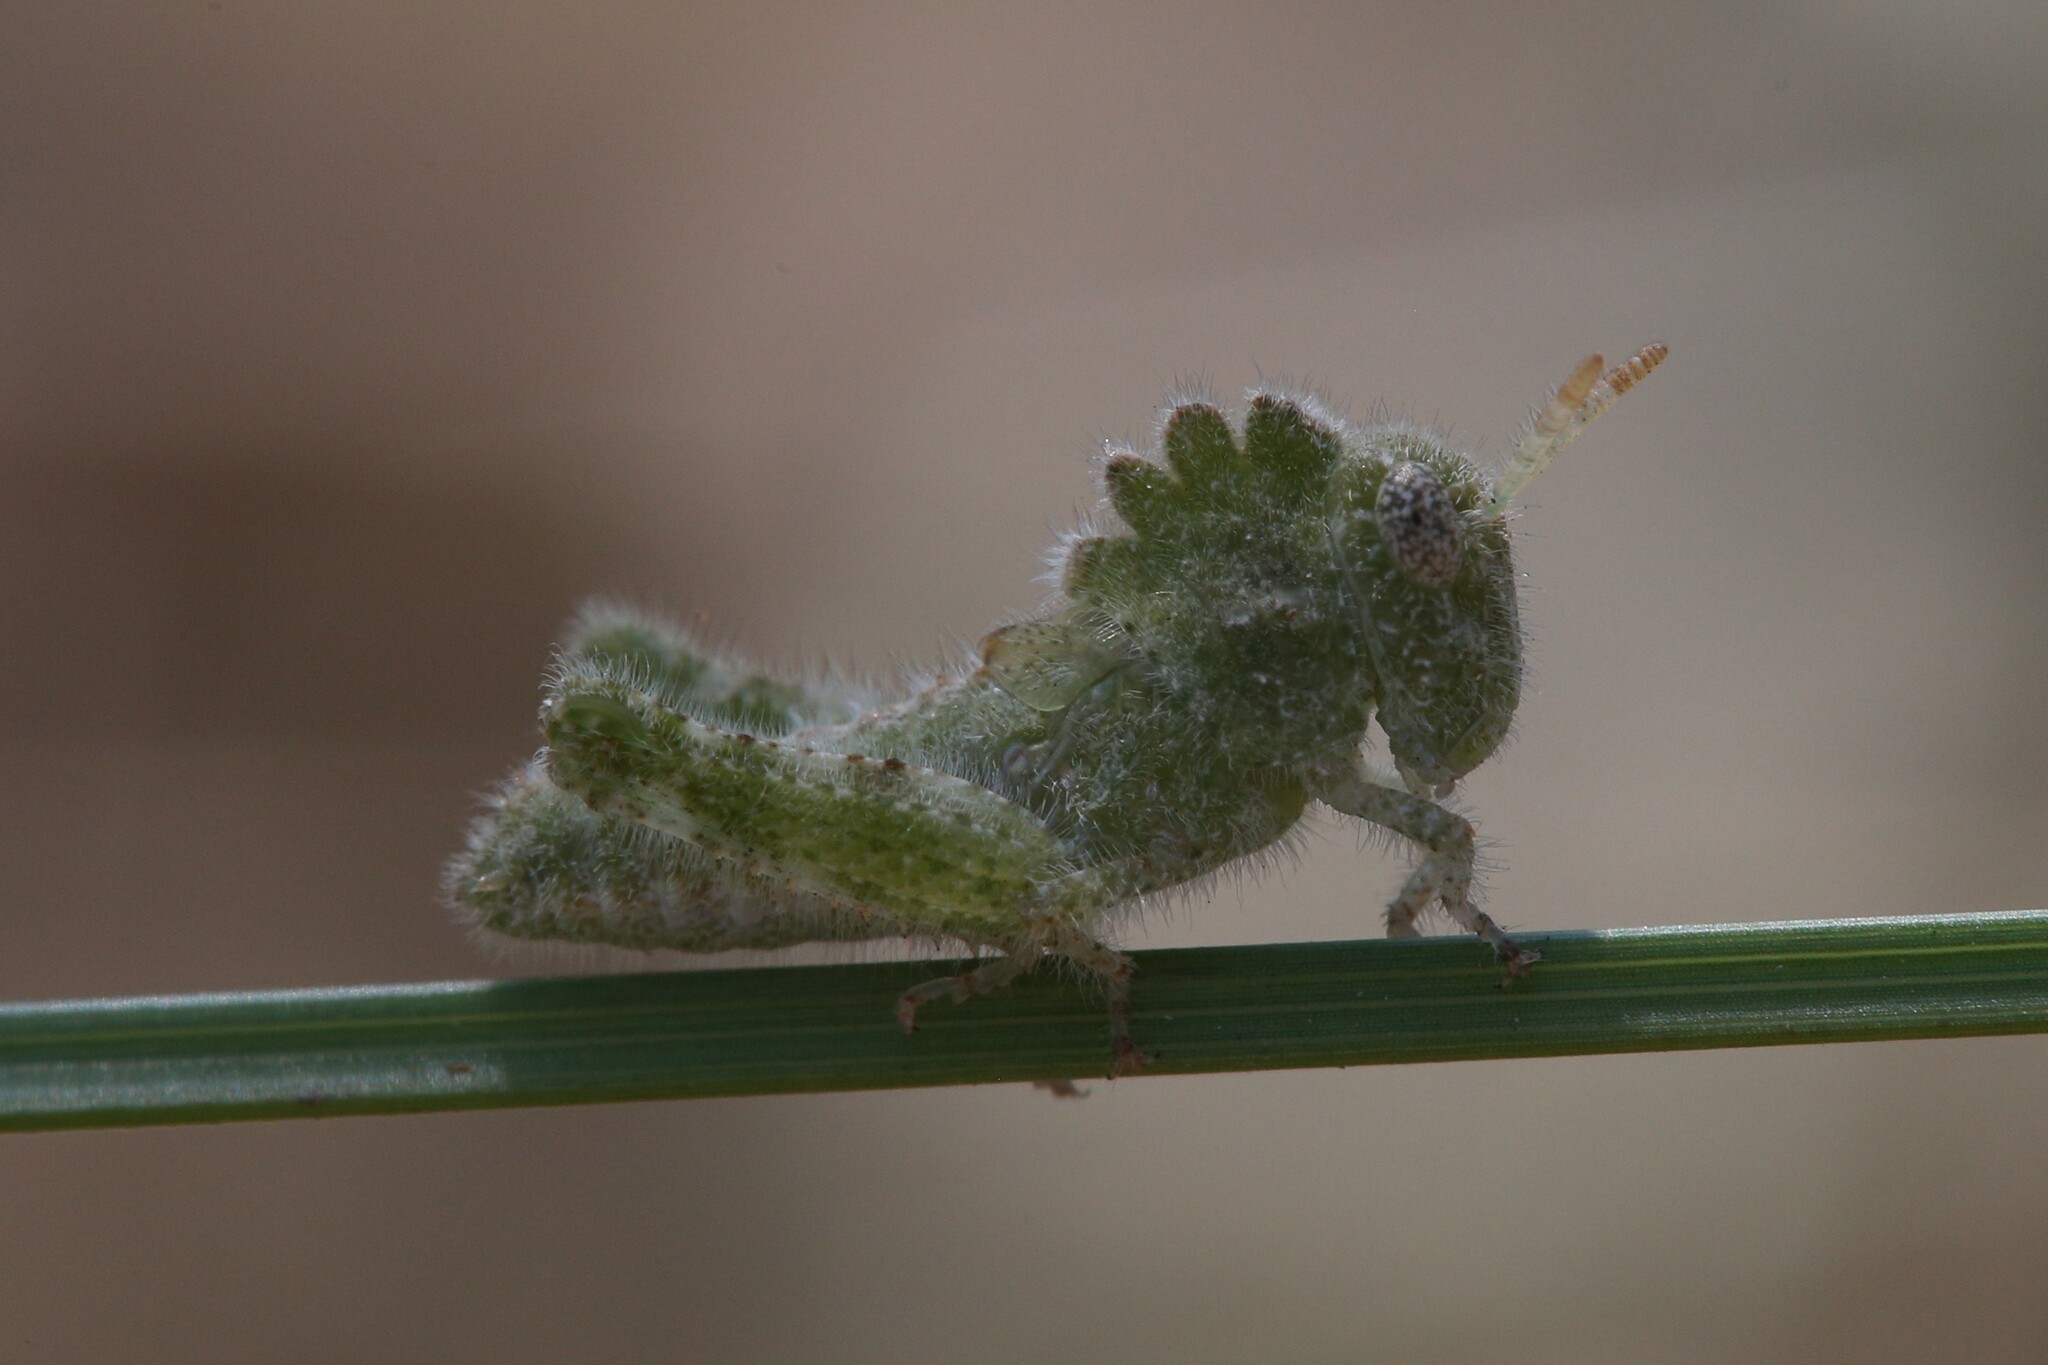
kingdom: Animalia
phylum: Arthropoda
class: Insecta
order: Orthoptera
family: Acrididae
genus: Ecphantus
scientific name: Ecphantus quadrilobus
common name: Crested tooth grinder
